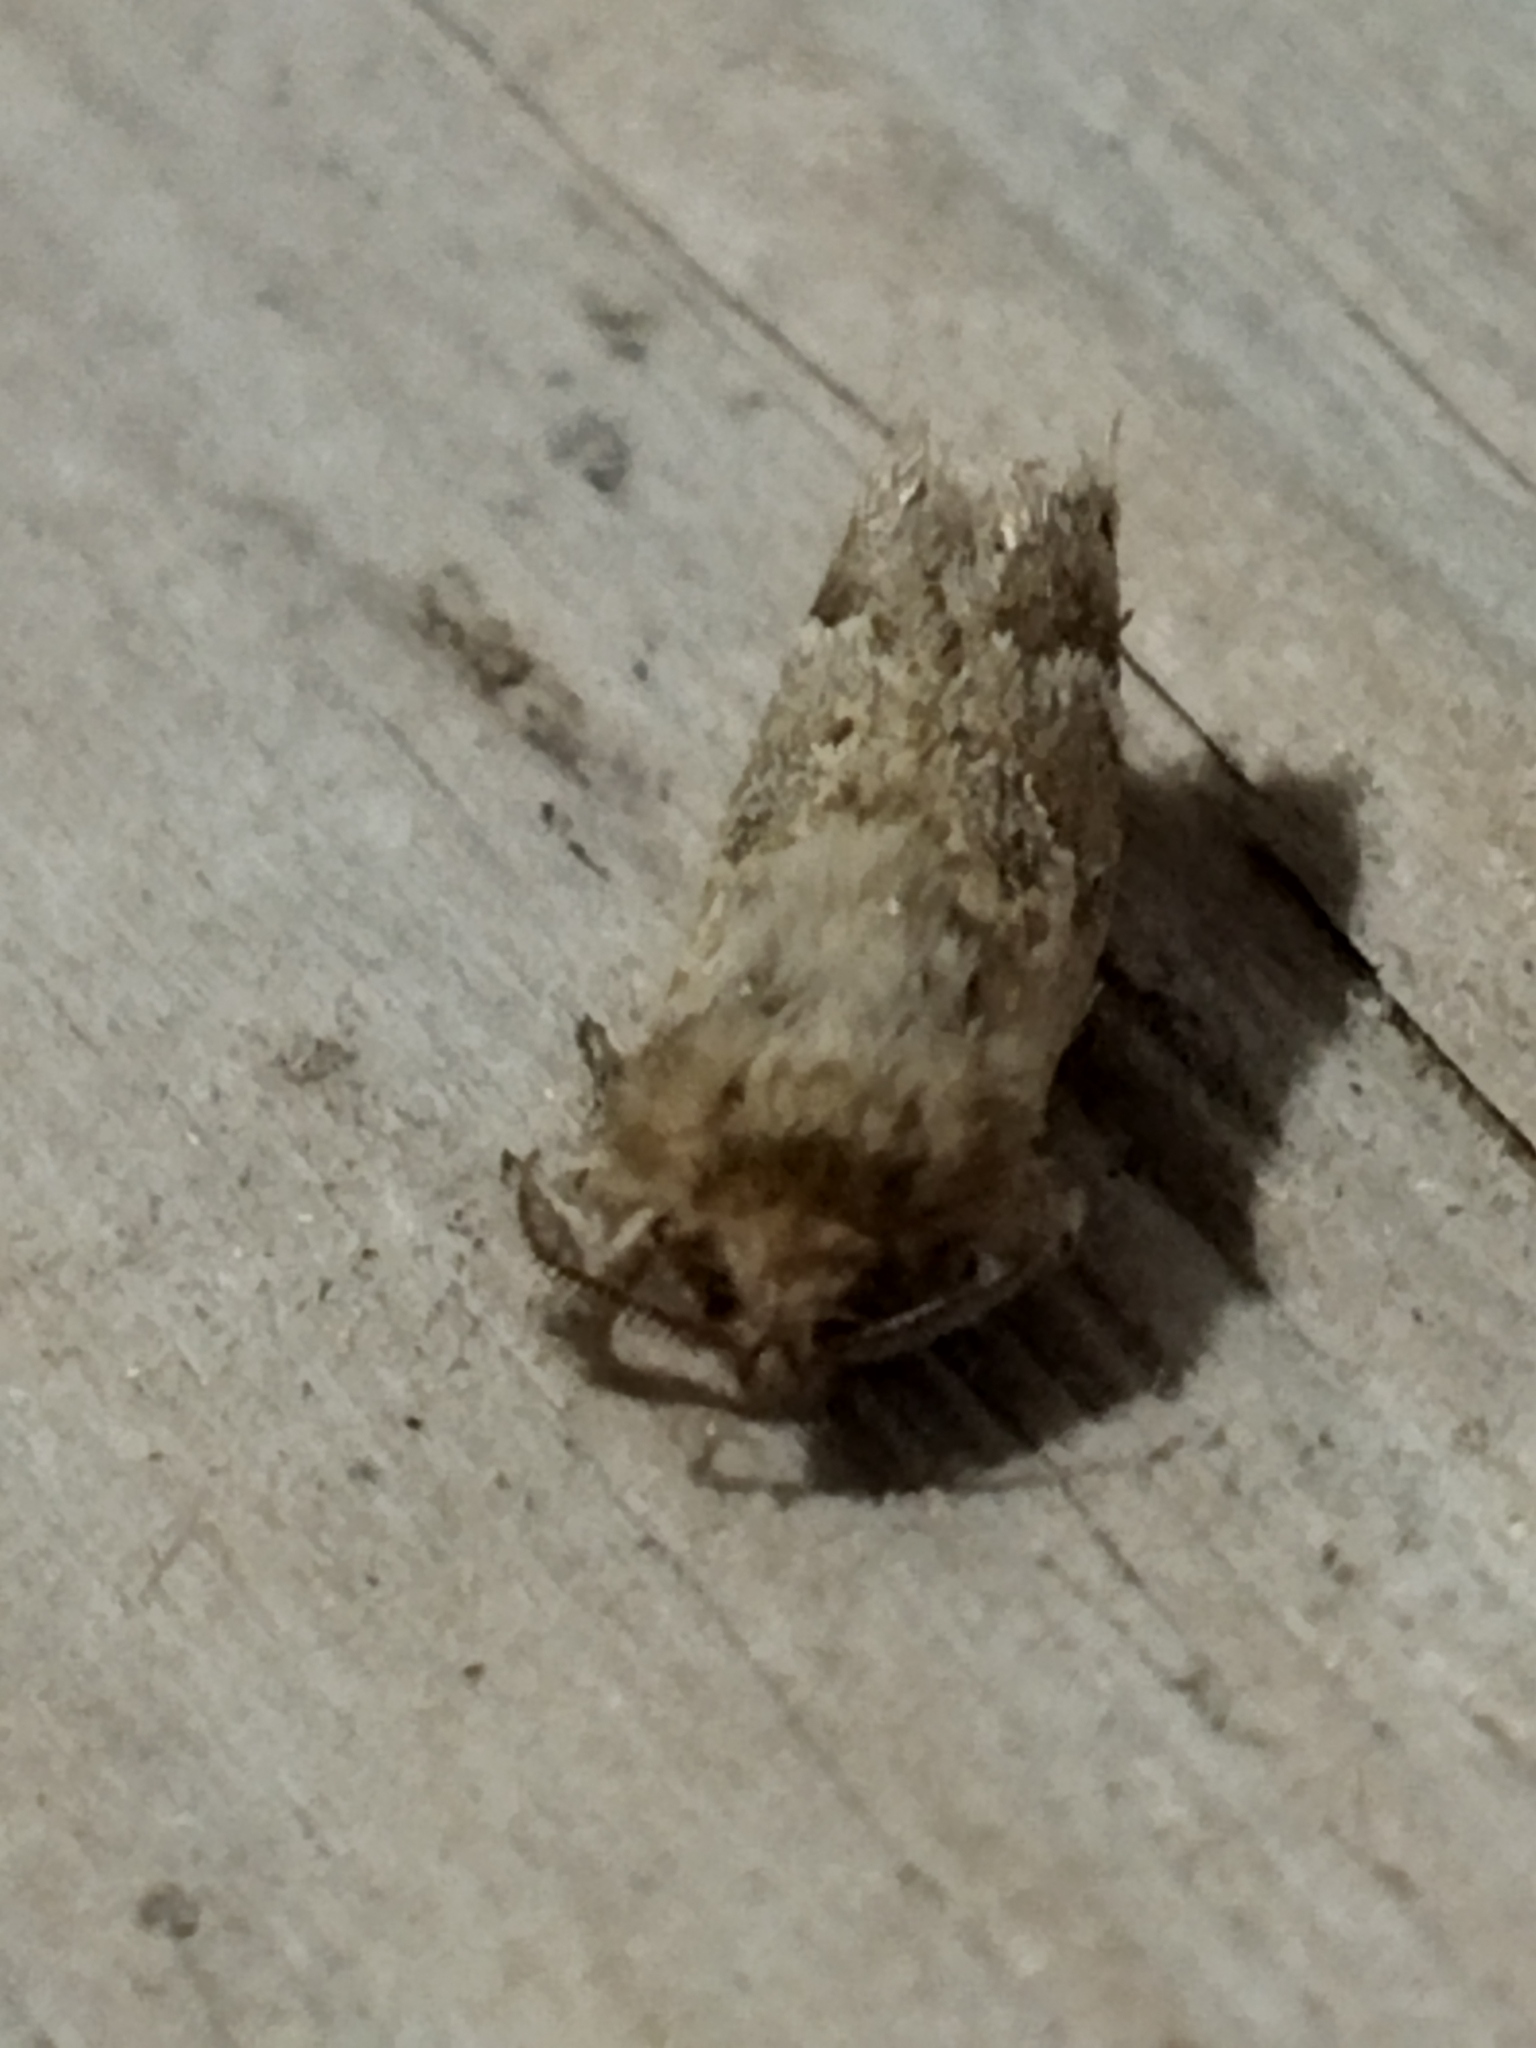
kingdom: Animalia
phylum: Arthropoda
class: Insecta
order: Lepidoptera
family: Hepialidae
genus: Triodia
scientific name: Triodia amasinus
